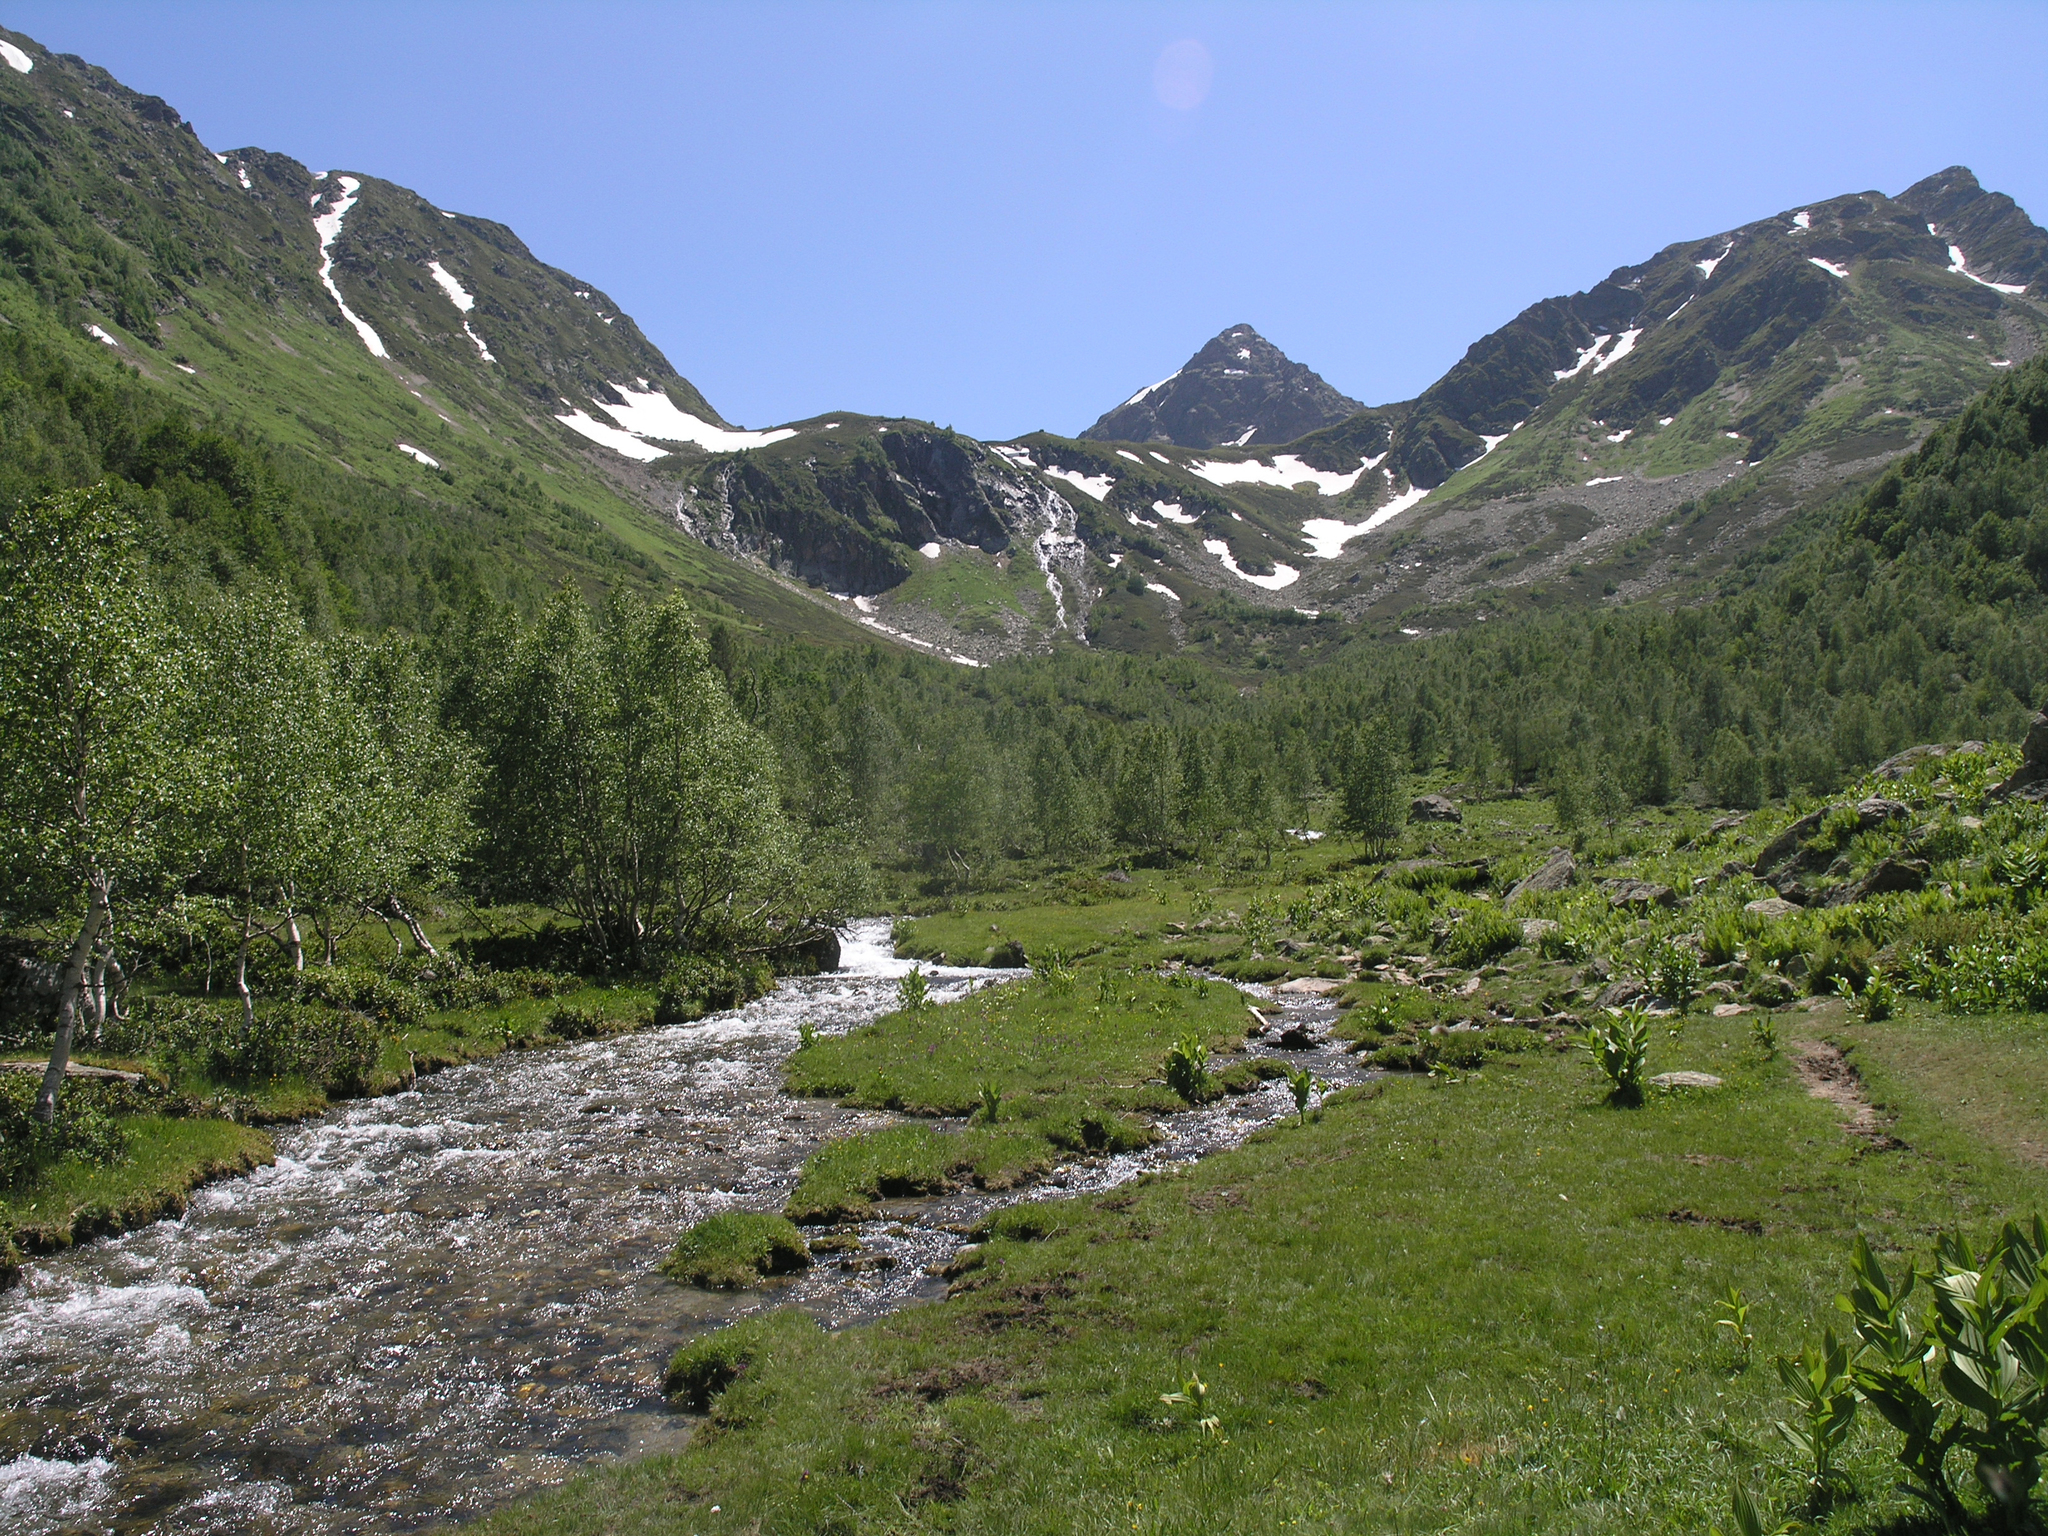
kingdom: Plantae
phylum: Tracheophyta
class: Liliopsida
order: Liliales
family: Melanthiaceae
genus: Veratrum
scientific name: Veratrum lobelianum
